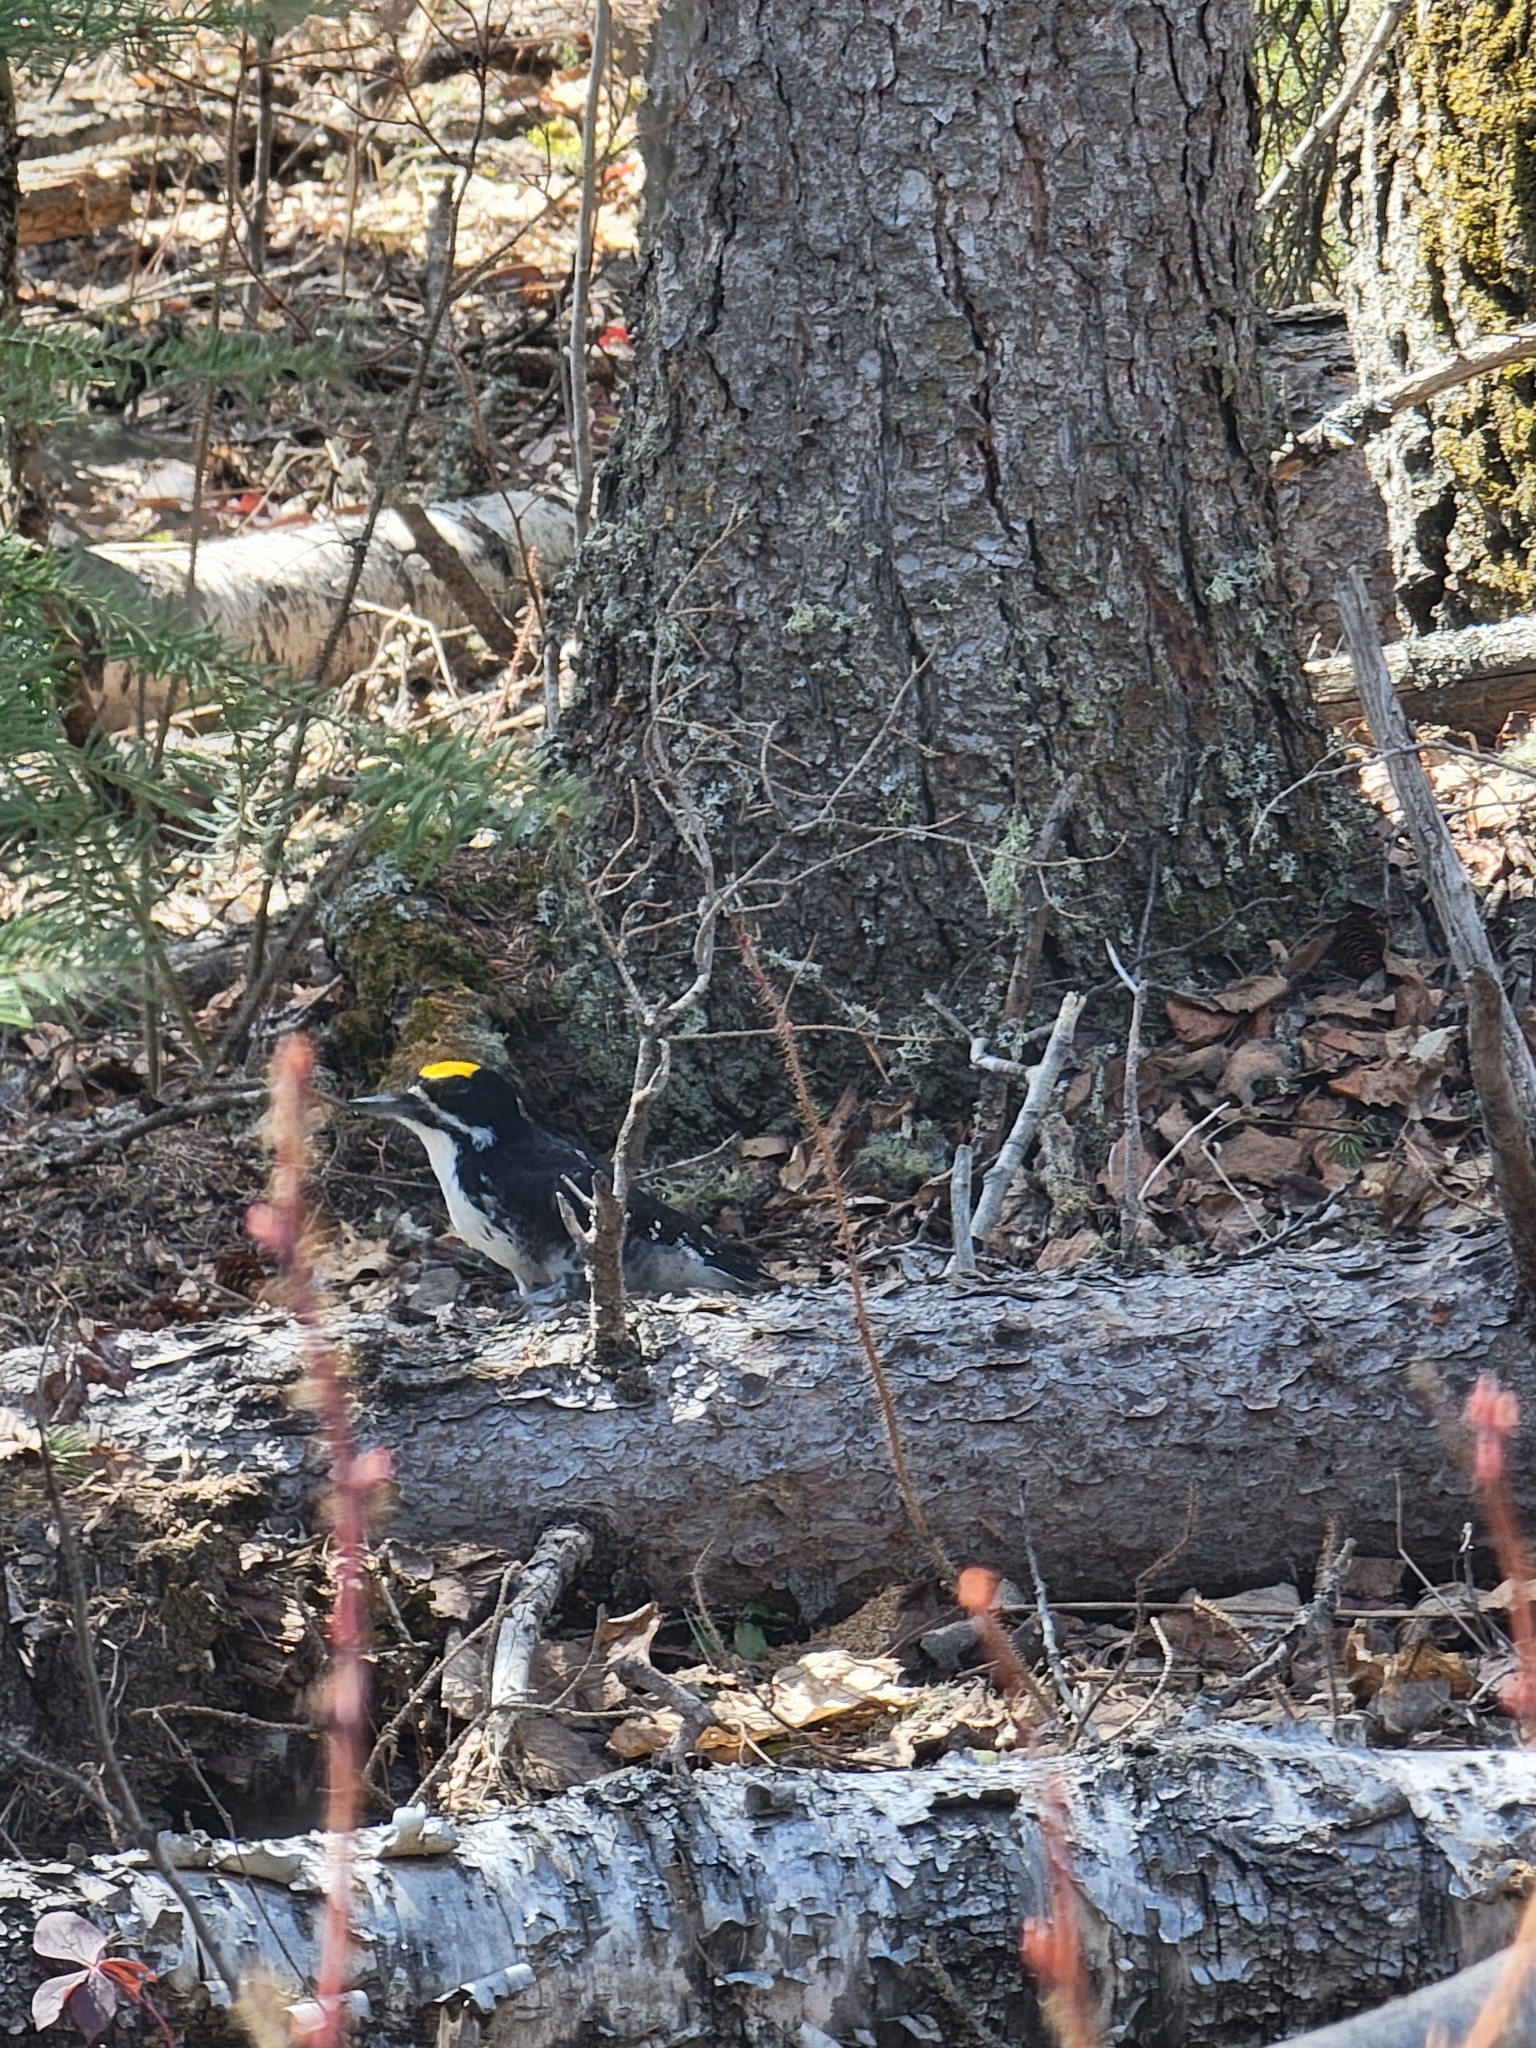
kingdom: Animalia
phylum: Chordata
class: Aves
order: Piciformes
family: Picidae
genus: Picoides
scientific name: Picoides arcticus
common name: Black-backed woodpecker
